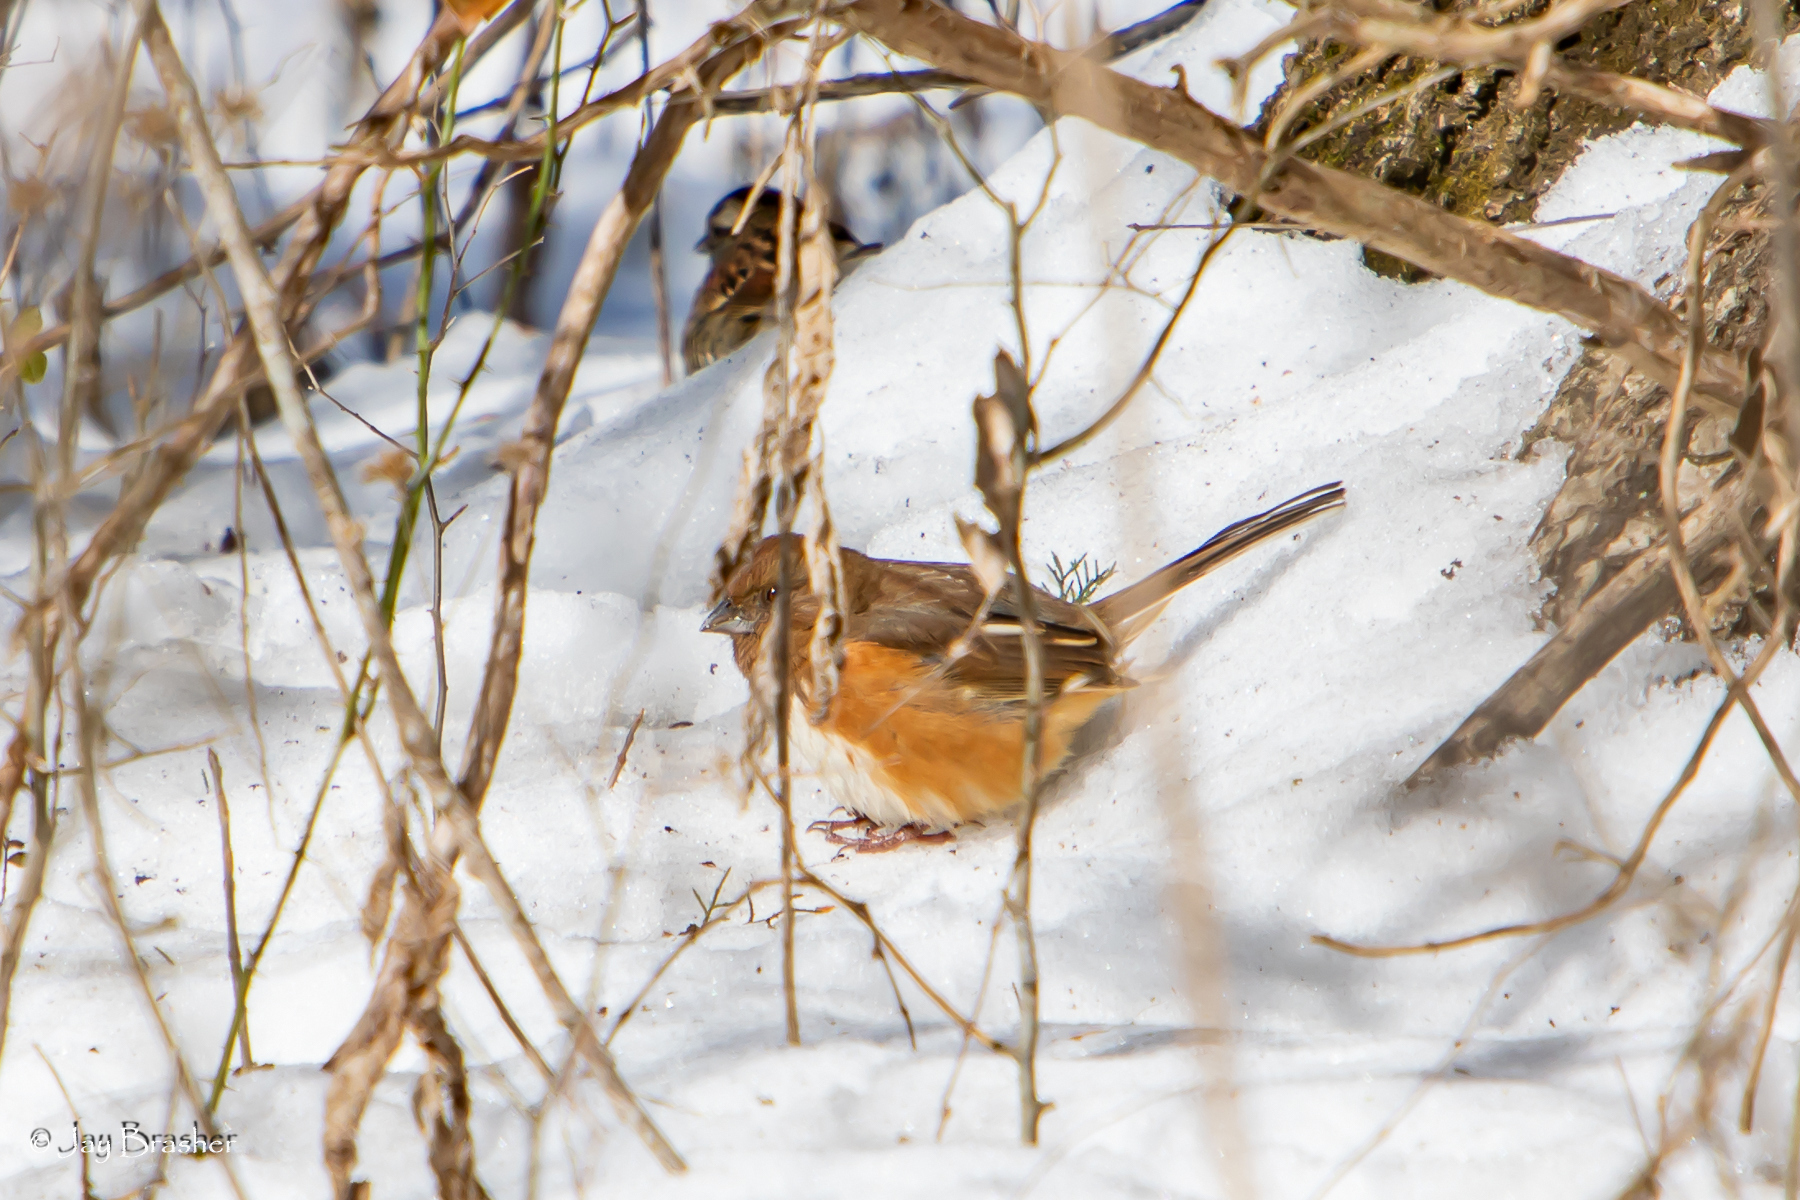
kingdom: Animalia
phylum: Chordata
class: Aves
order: Passeriformes
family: Passerellidae
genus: Pipilo
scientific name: Pipilo erythrophthalmus
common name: Eastern towhee
